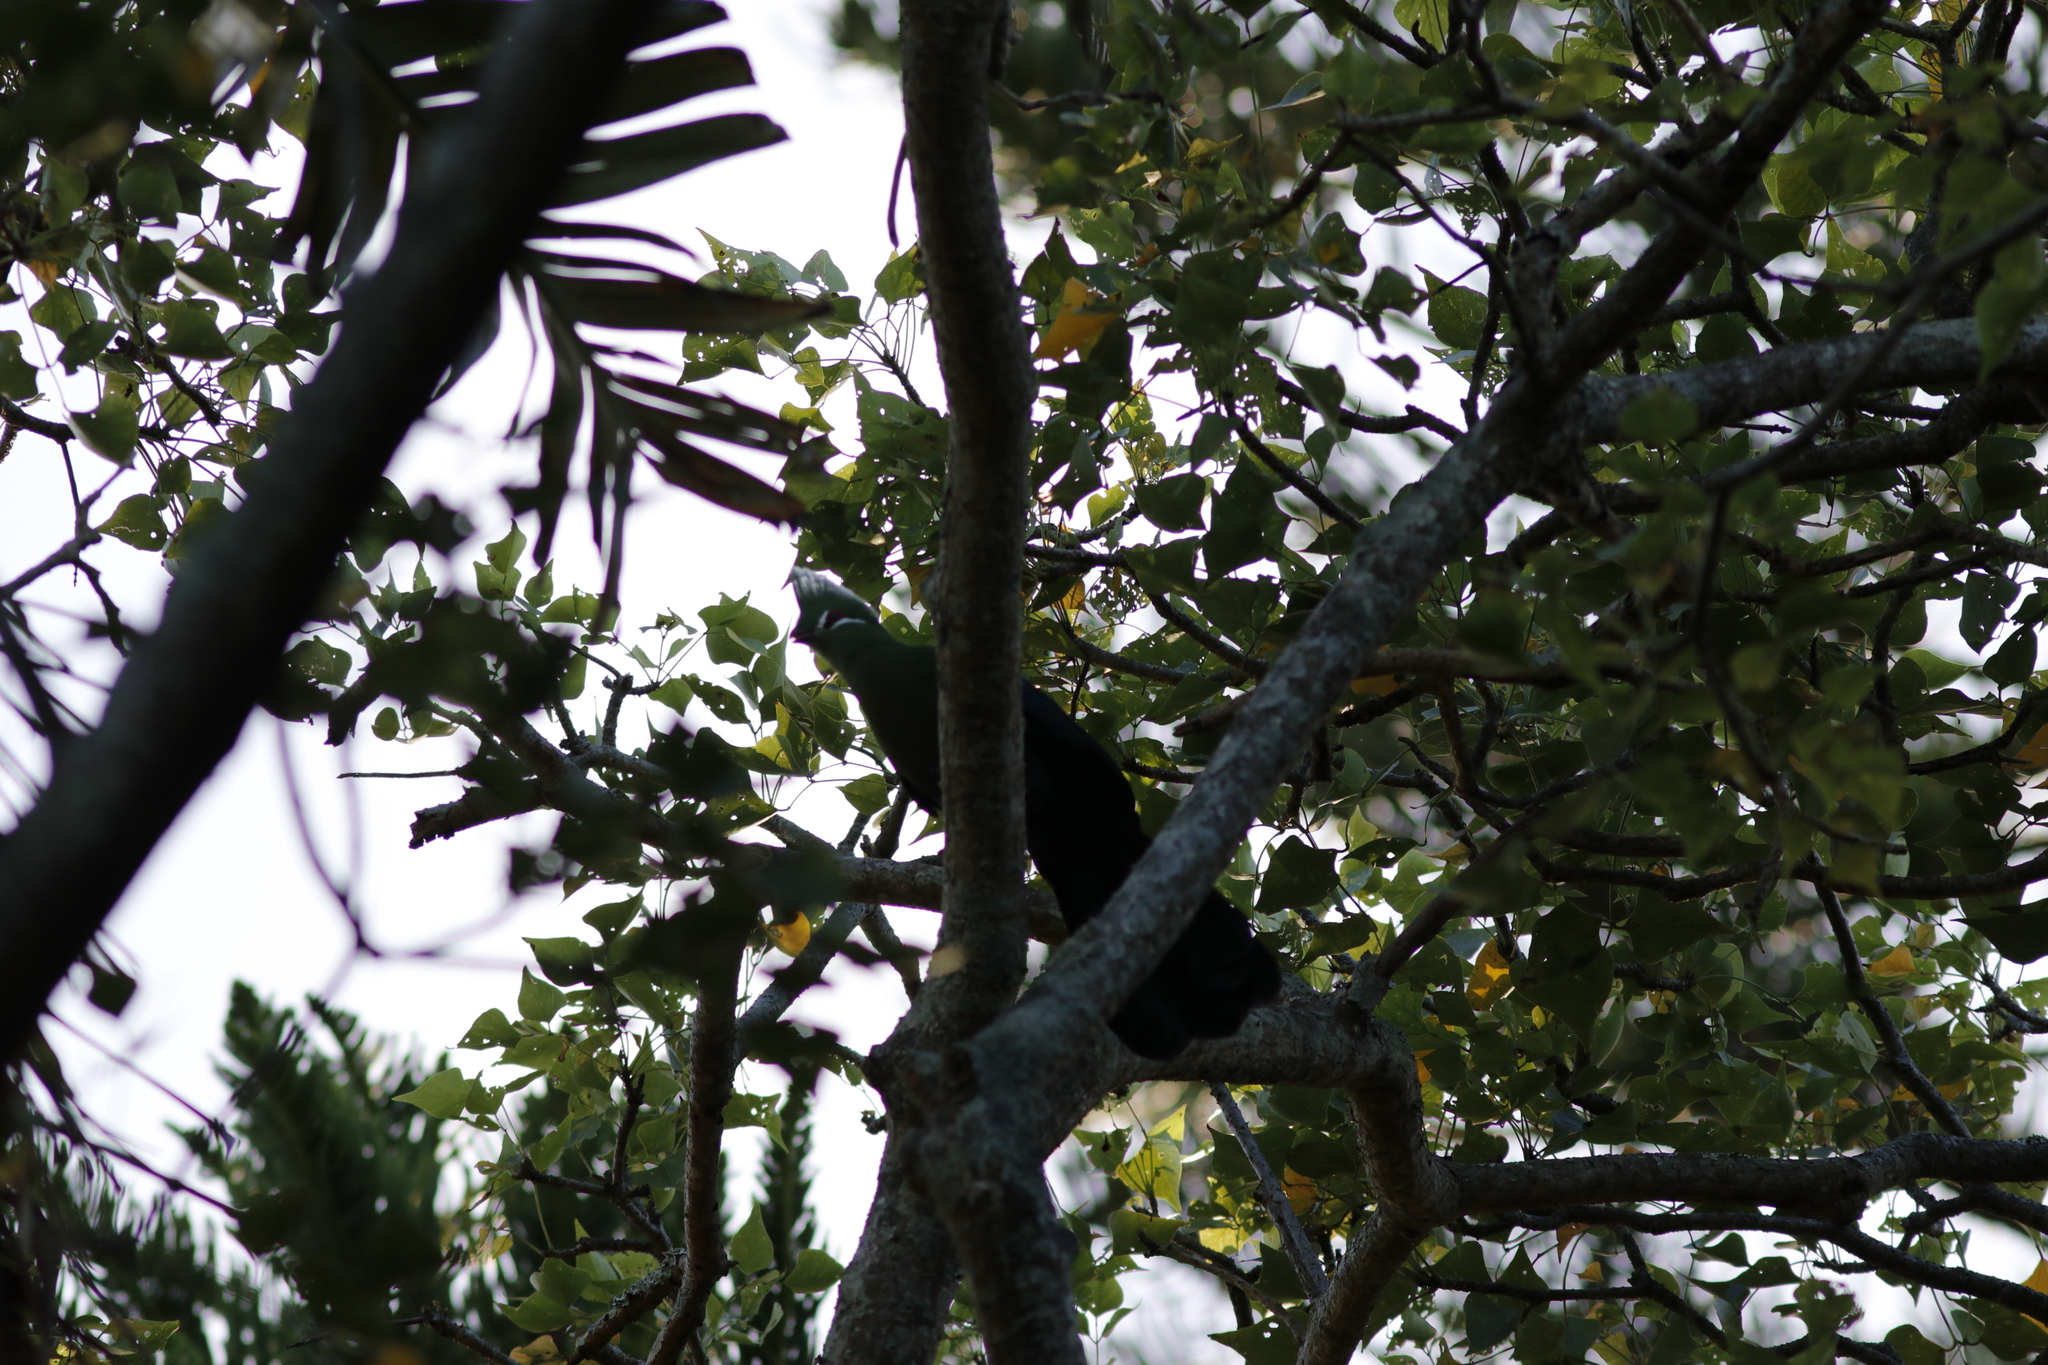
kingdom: Animalia
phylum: Chordata
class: Aves
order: Musophagiformes
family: Musophagidae
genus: Tauraco
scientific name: Tauraco corythaix
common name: Knysna turaco
